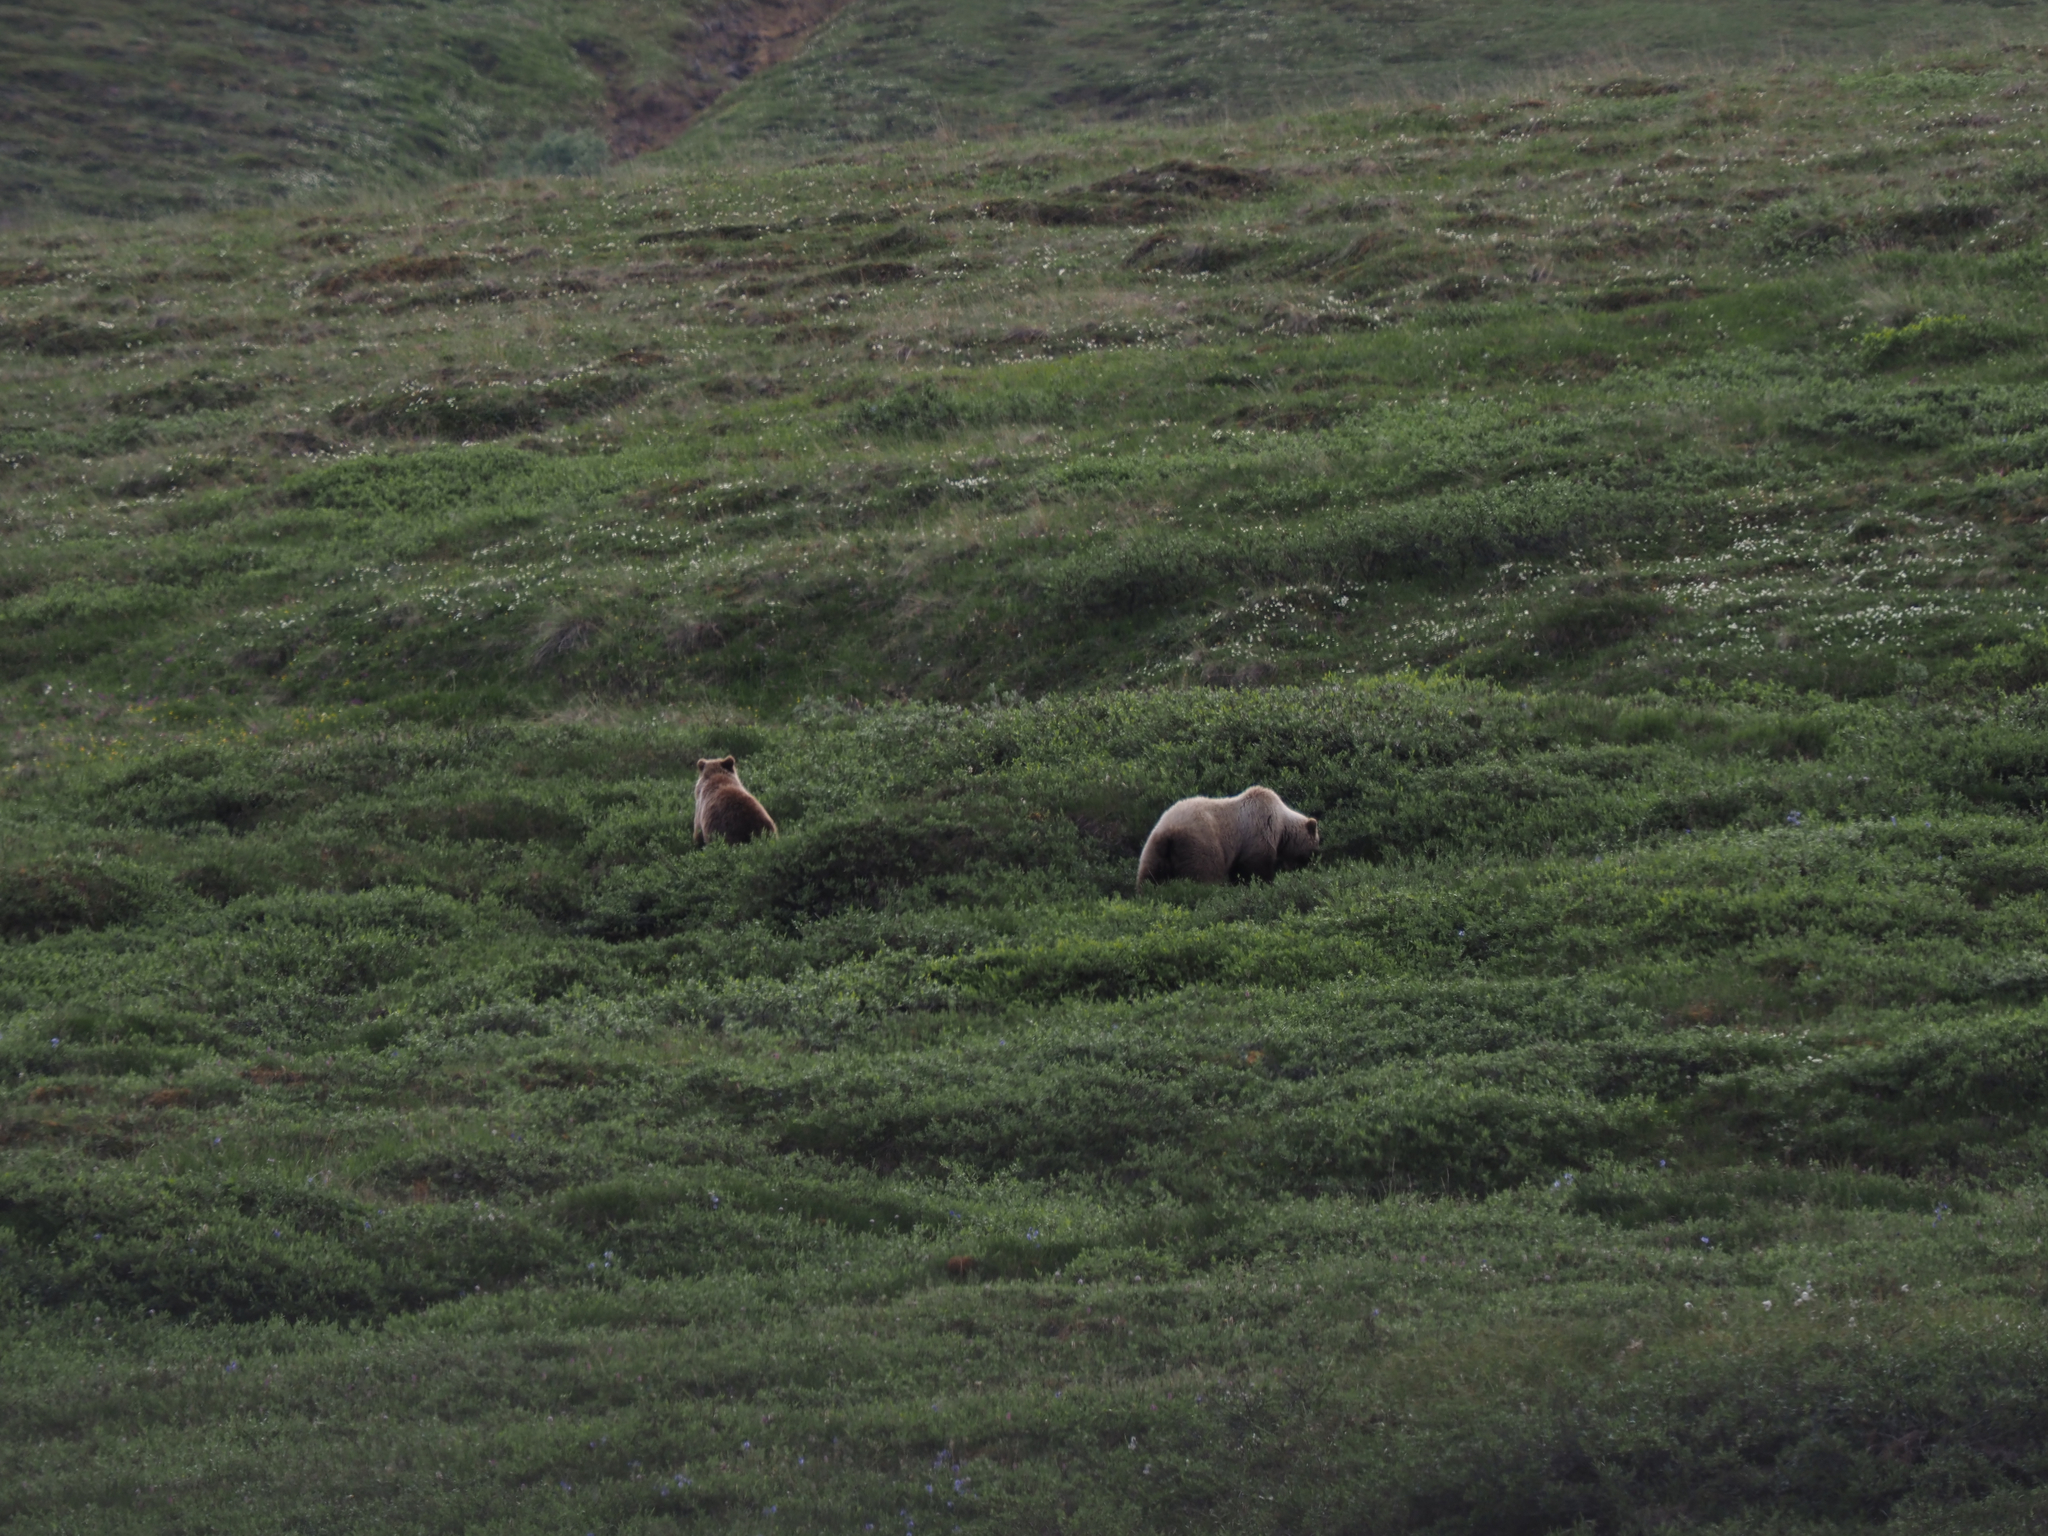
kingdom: Animalia
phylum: Chordata
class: Mammalia
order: Carnivora
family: Ursidae
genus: Ursus
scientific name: Ursus arctos
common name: Brown bear
